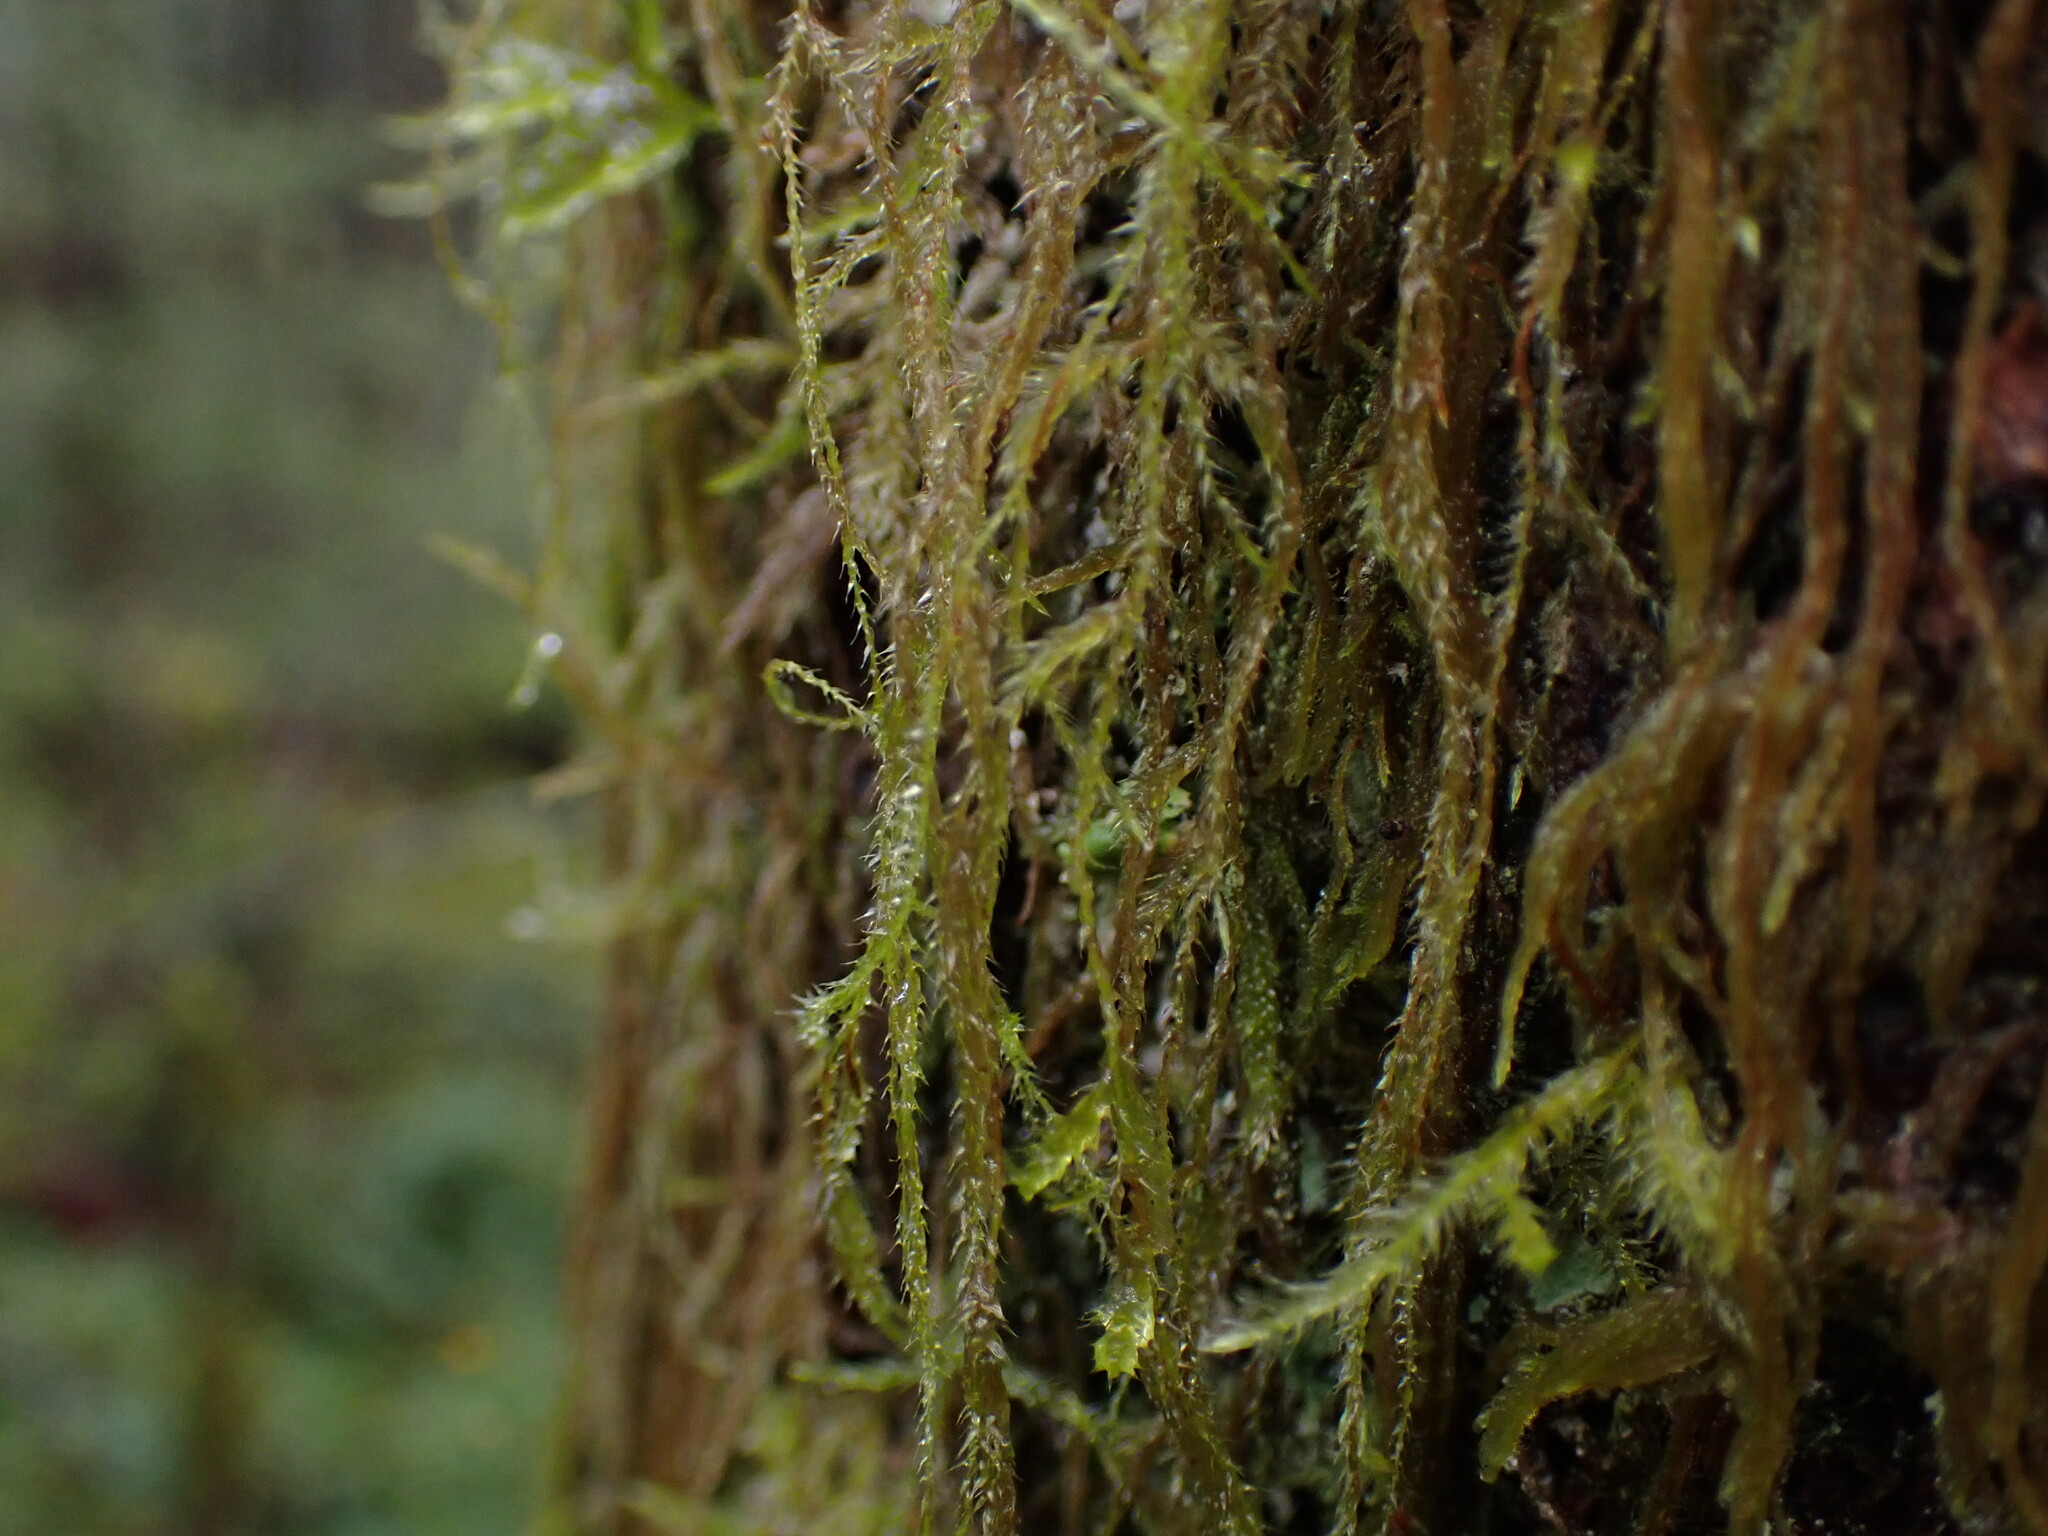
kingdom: Plantae
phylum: Bryophyta
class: Bryopsida
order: Hypnales
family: Lembophyllaceae
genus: Pseudisothecium
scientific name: Pseudisothecium stoloniferum
